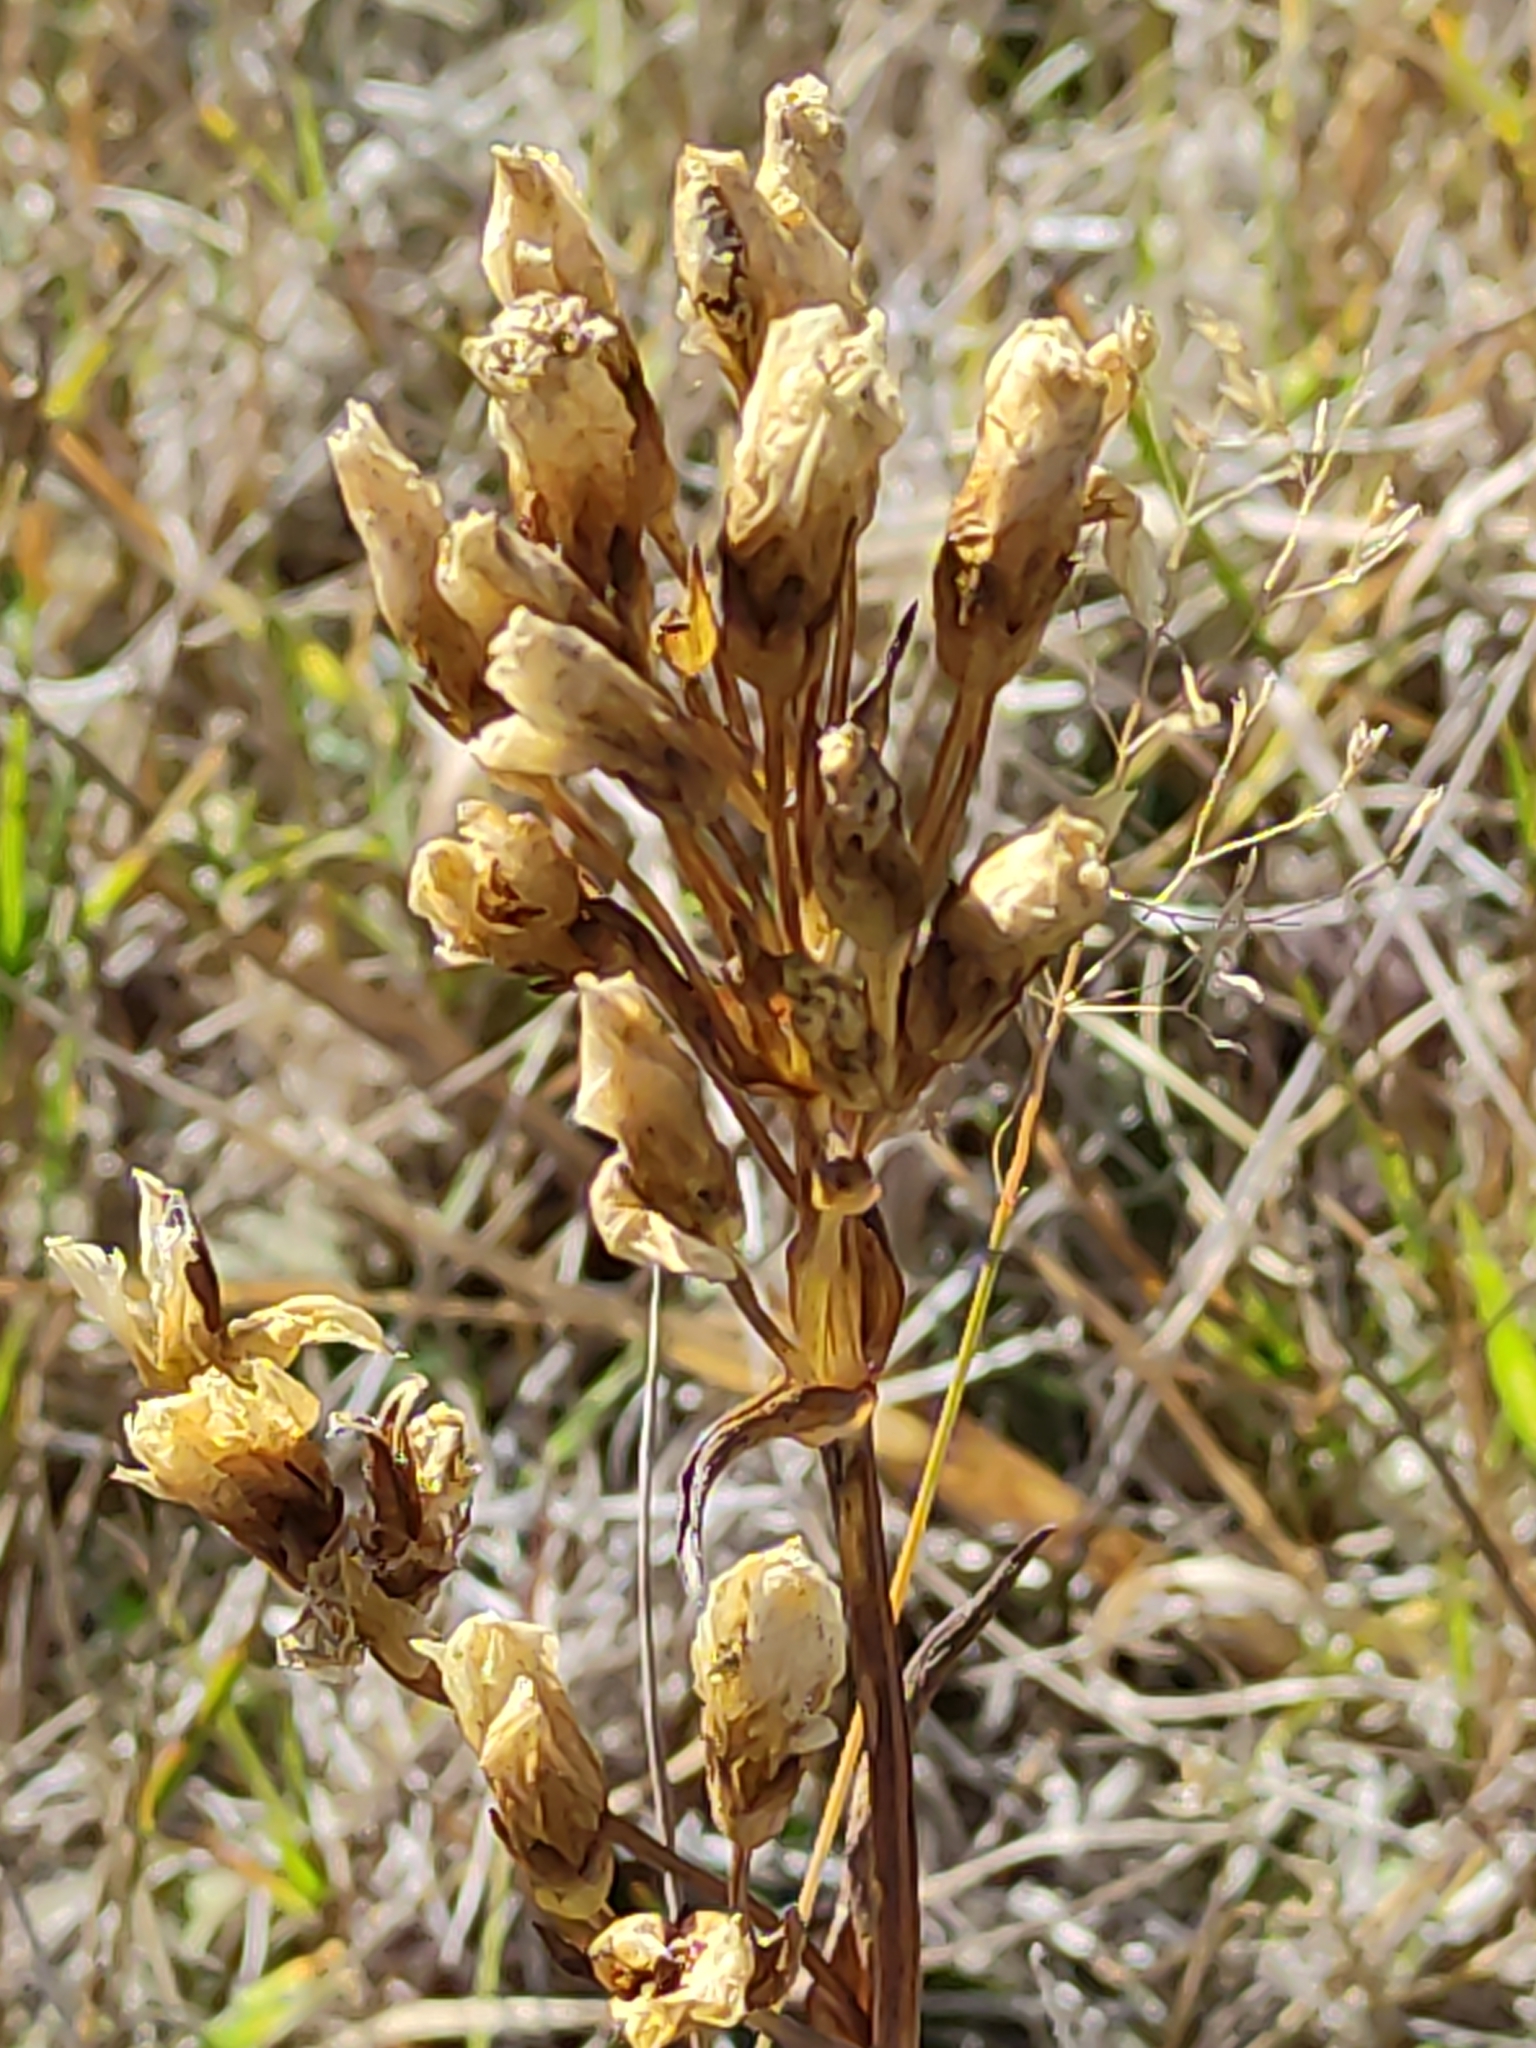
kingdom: Plantae
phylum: Tracheophyta
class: Magnoliopsida
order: Gentianales
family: Gentianaceae
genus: Gentianella
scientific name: Gentianella corymbifera
